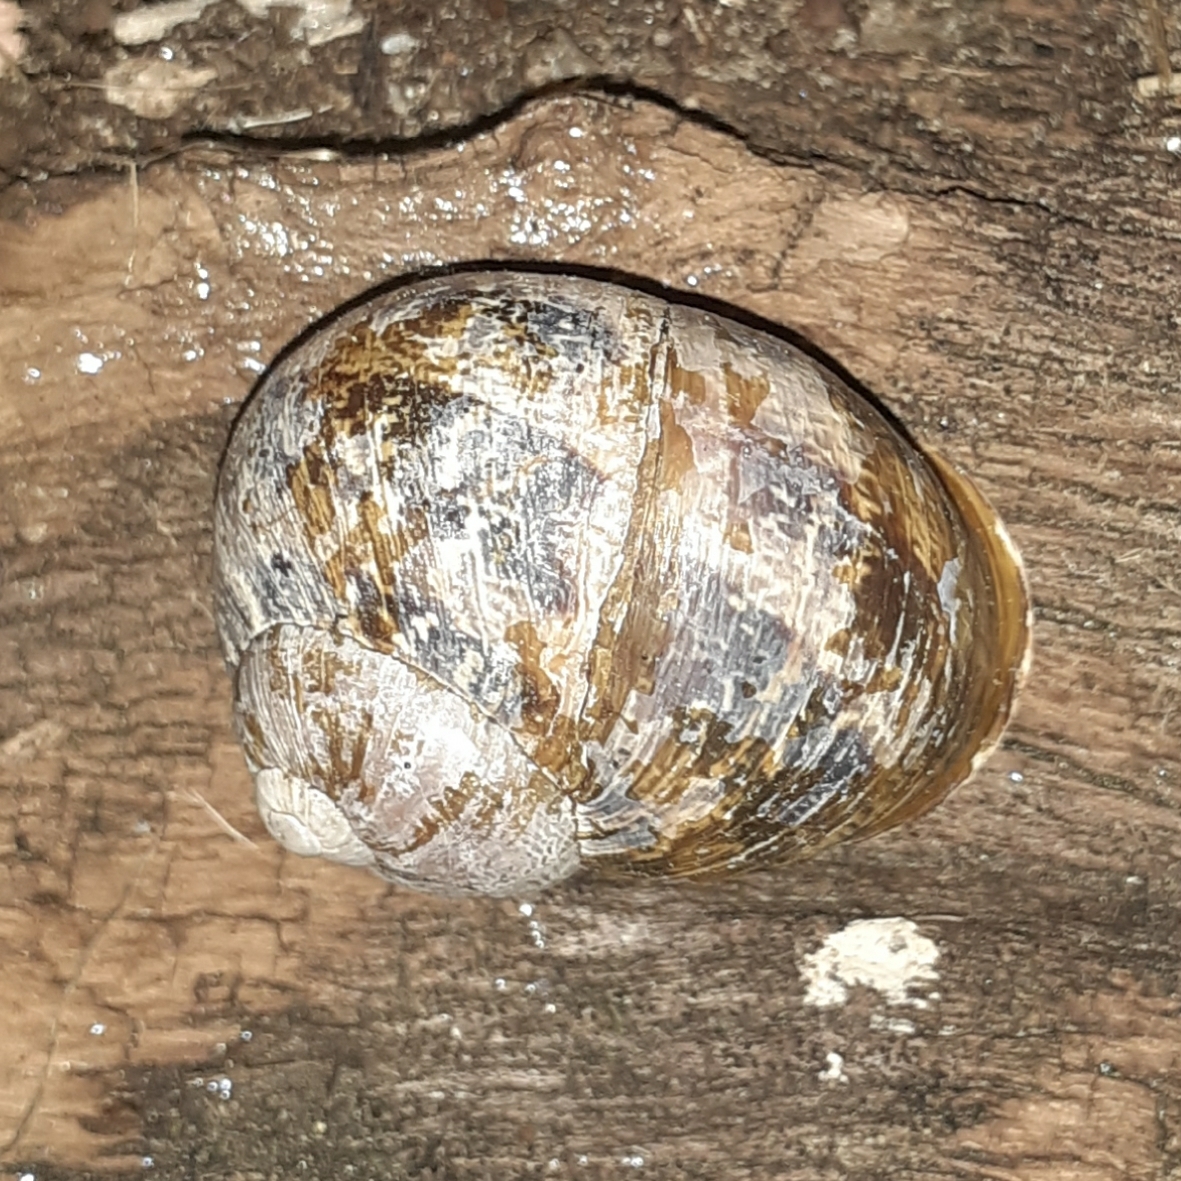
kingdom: Animalia
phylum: Mollusca
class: Gastropoda
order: Stylommatophora
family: Helicidae
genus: Cornu
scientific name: Cornu aspersum
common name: Brown garden snail
